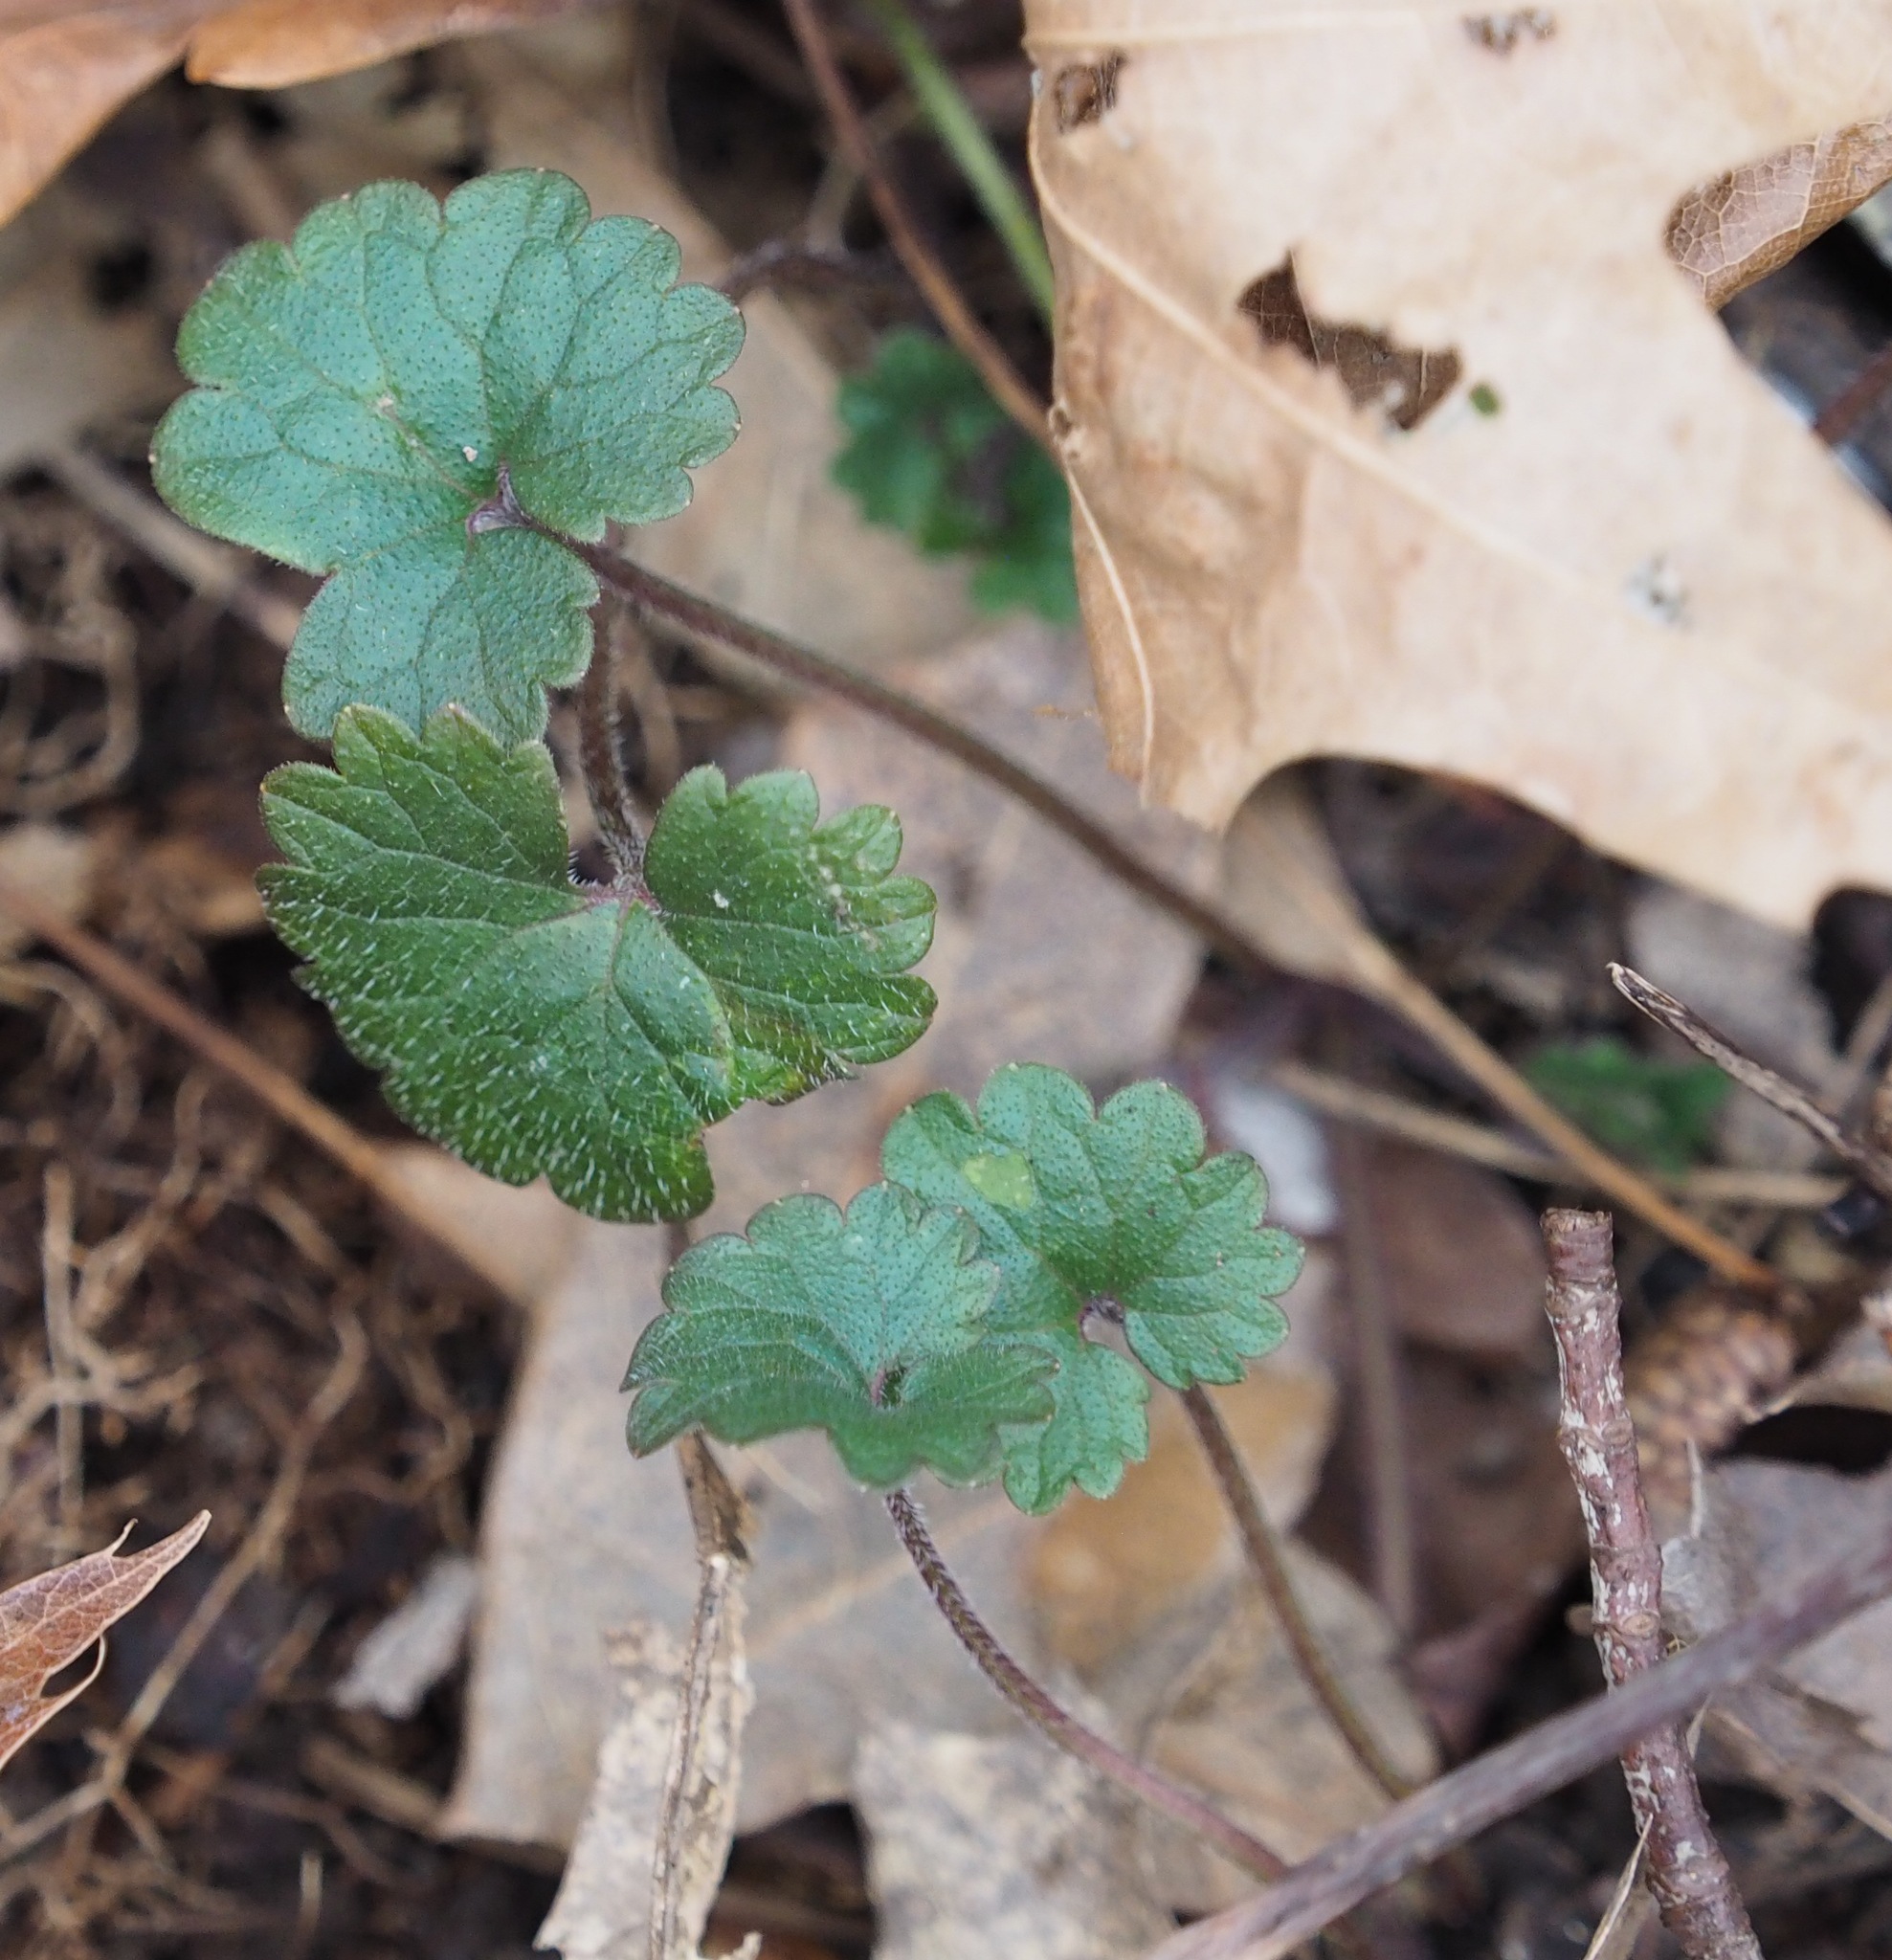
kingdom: Plantae
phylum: Tracheophyta
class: Magnoliopsida
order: Lamiales
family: Lamiaceae
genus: Glechoma
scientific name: Glechoma hederacea
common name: Ground ivy
